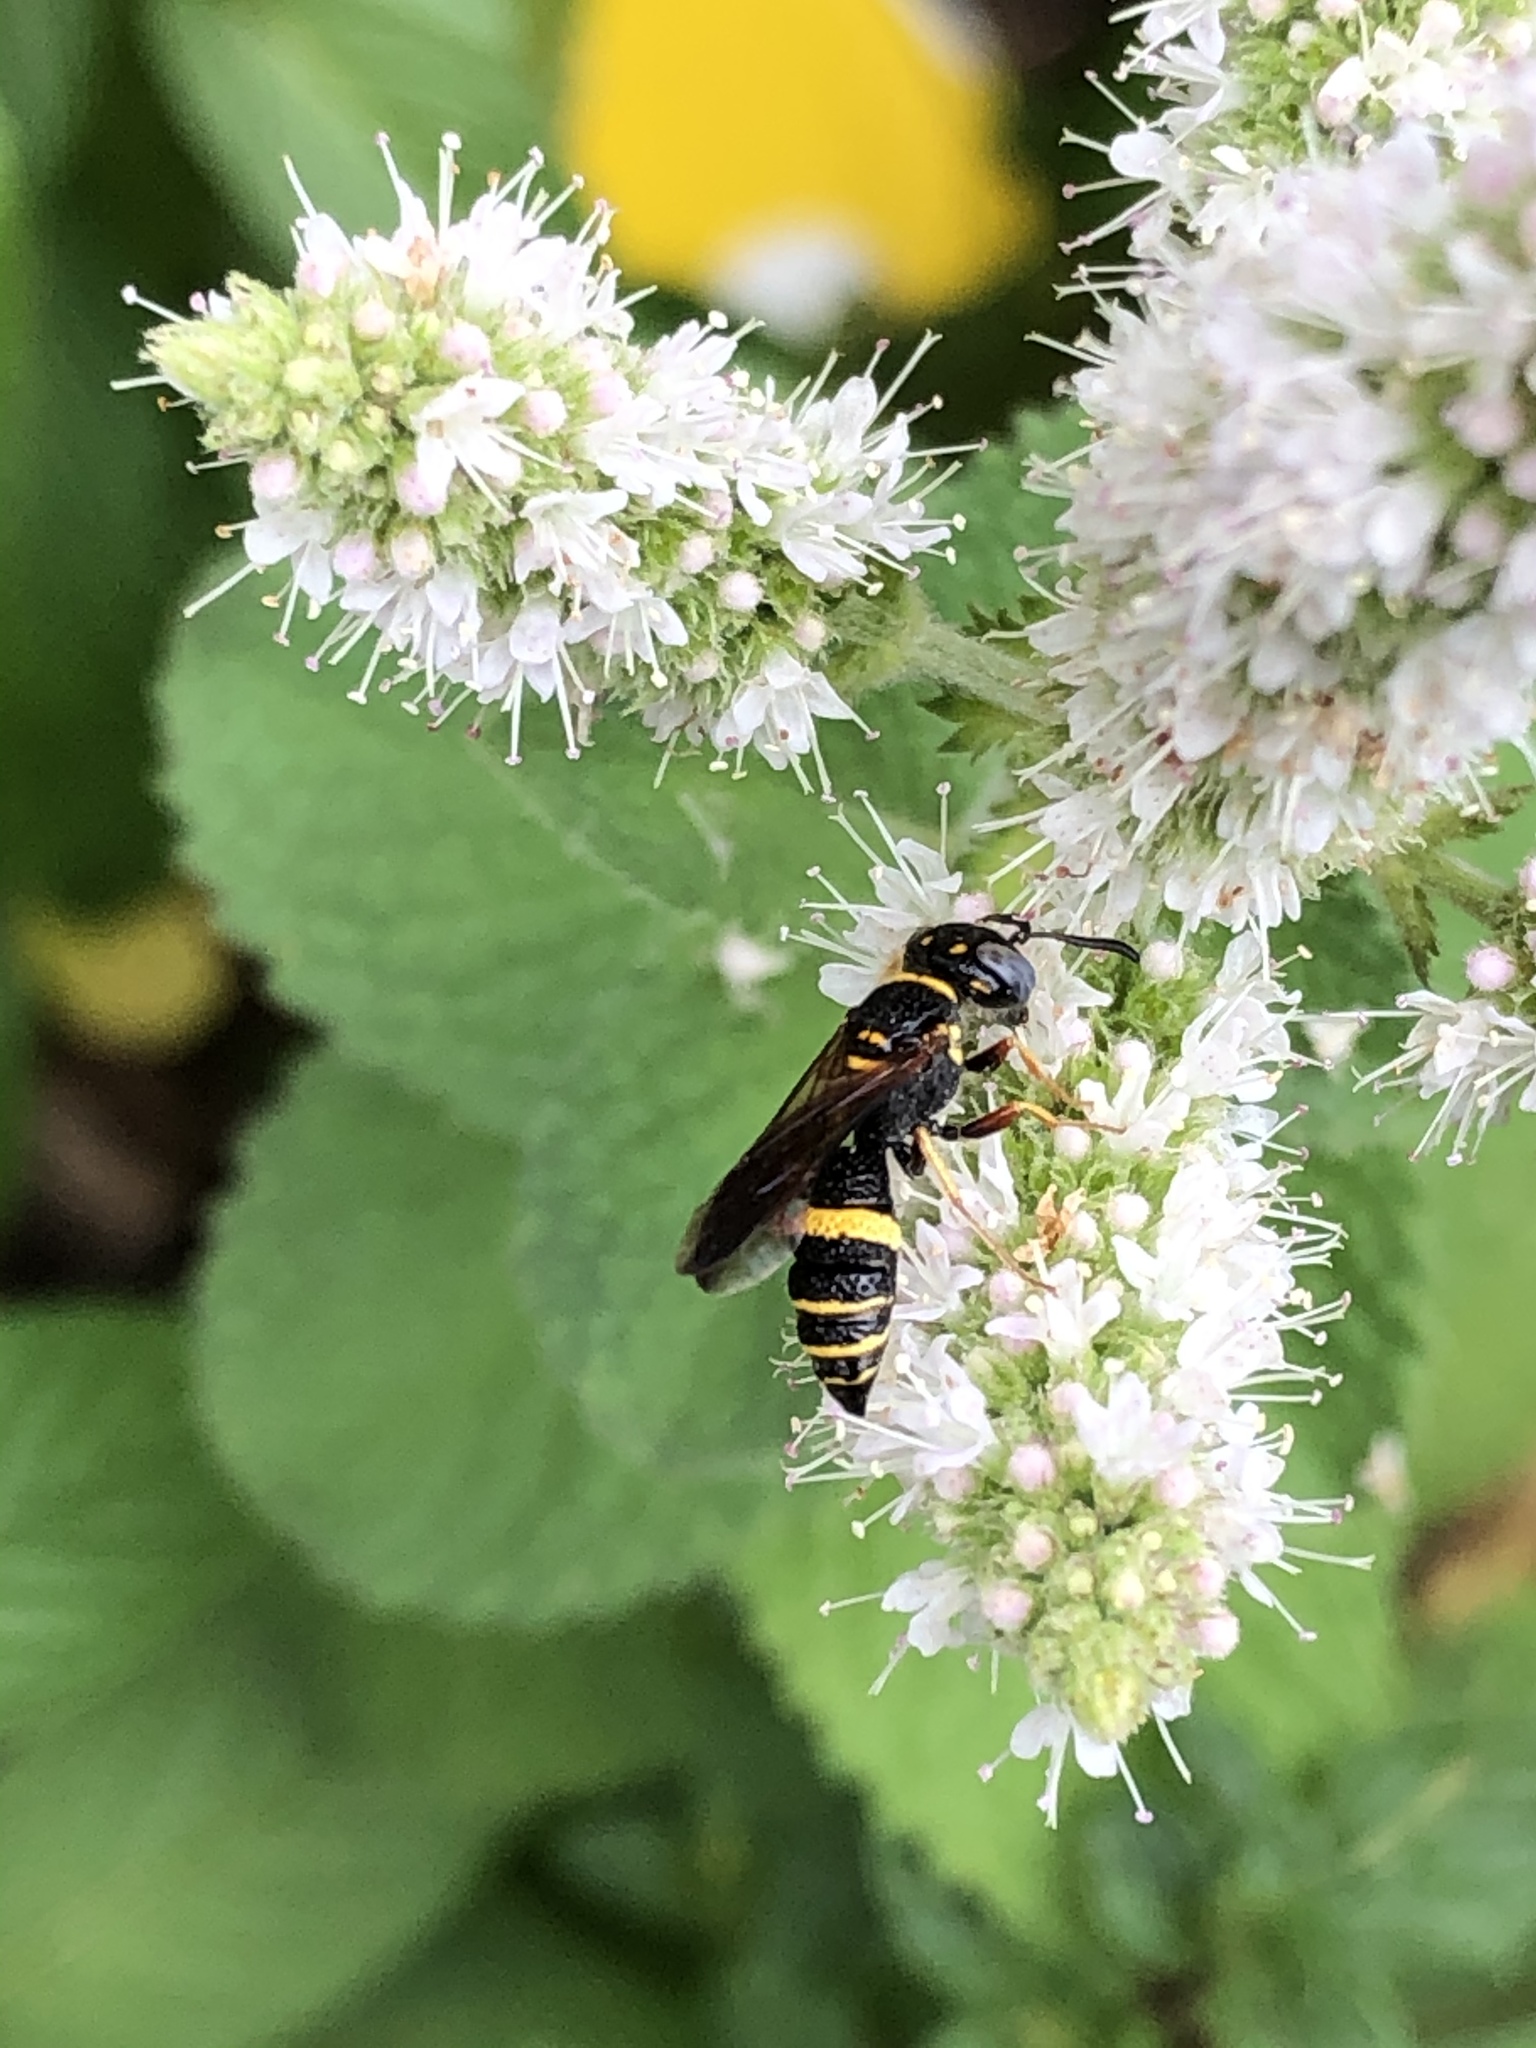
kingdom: Animalia
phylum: Arthropoda
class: Insecta
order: Hymenoptera
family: Crabronidae
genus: Philanthus
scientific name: Philanthus gibbosus
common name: Humped beewolf
